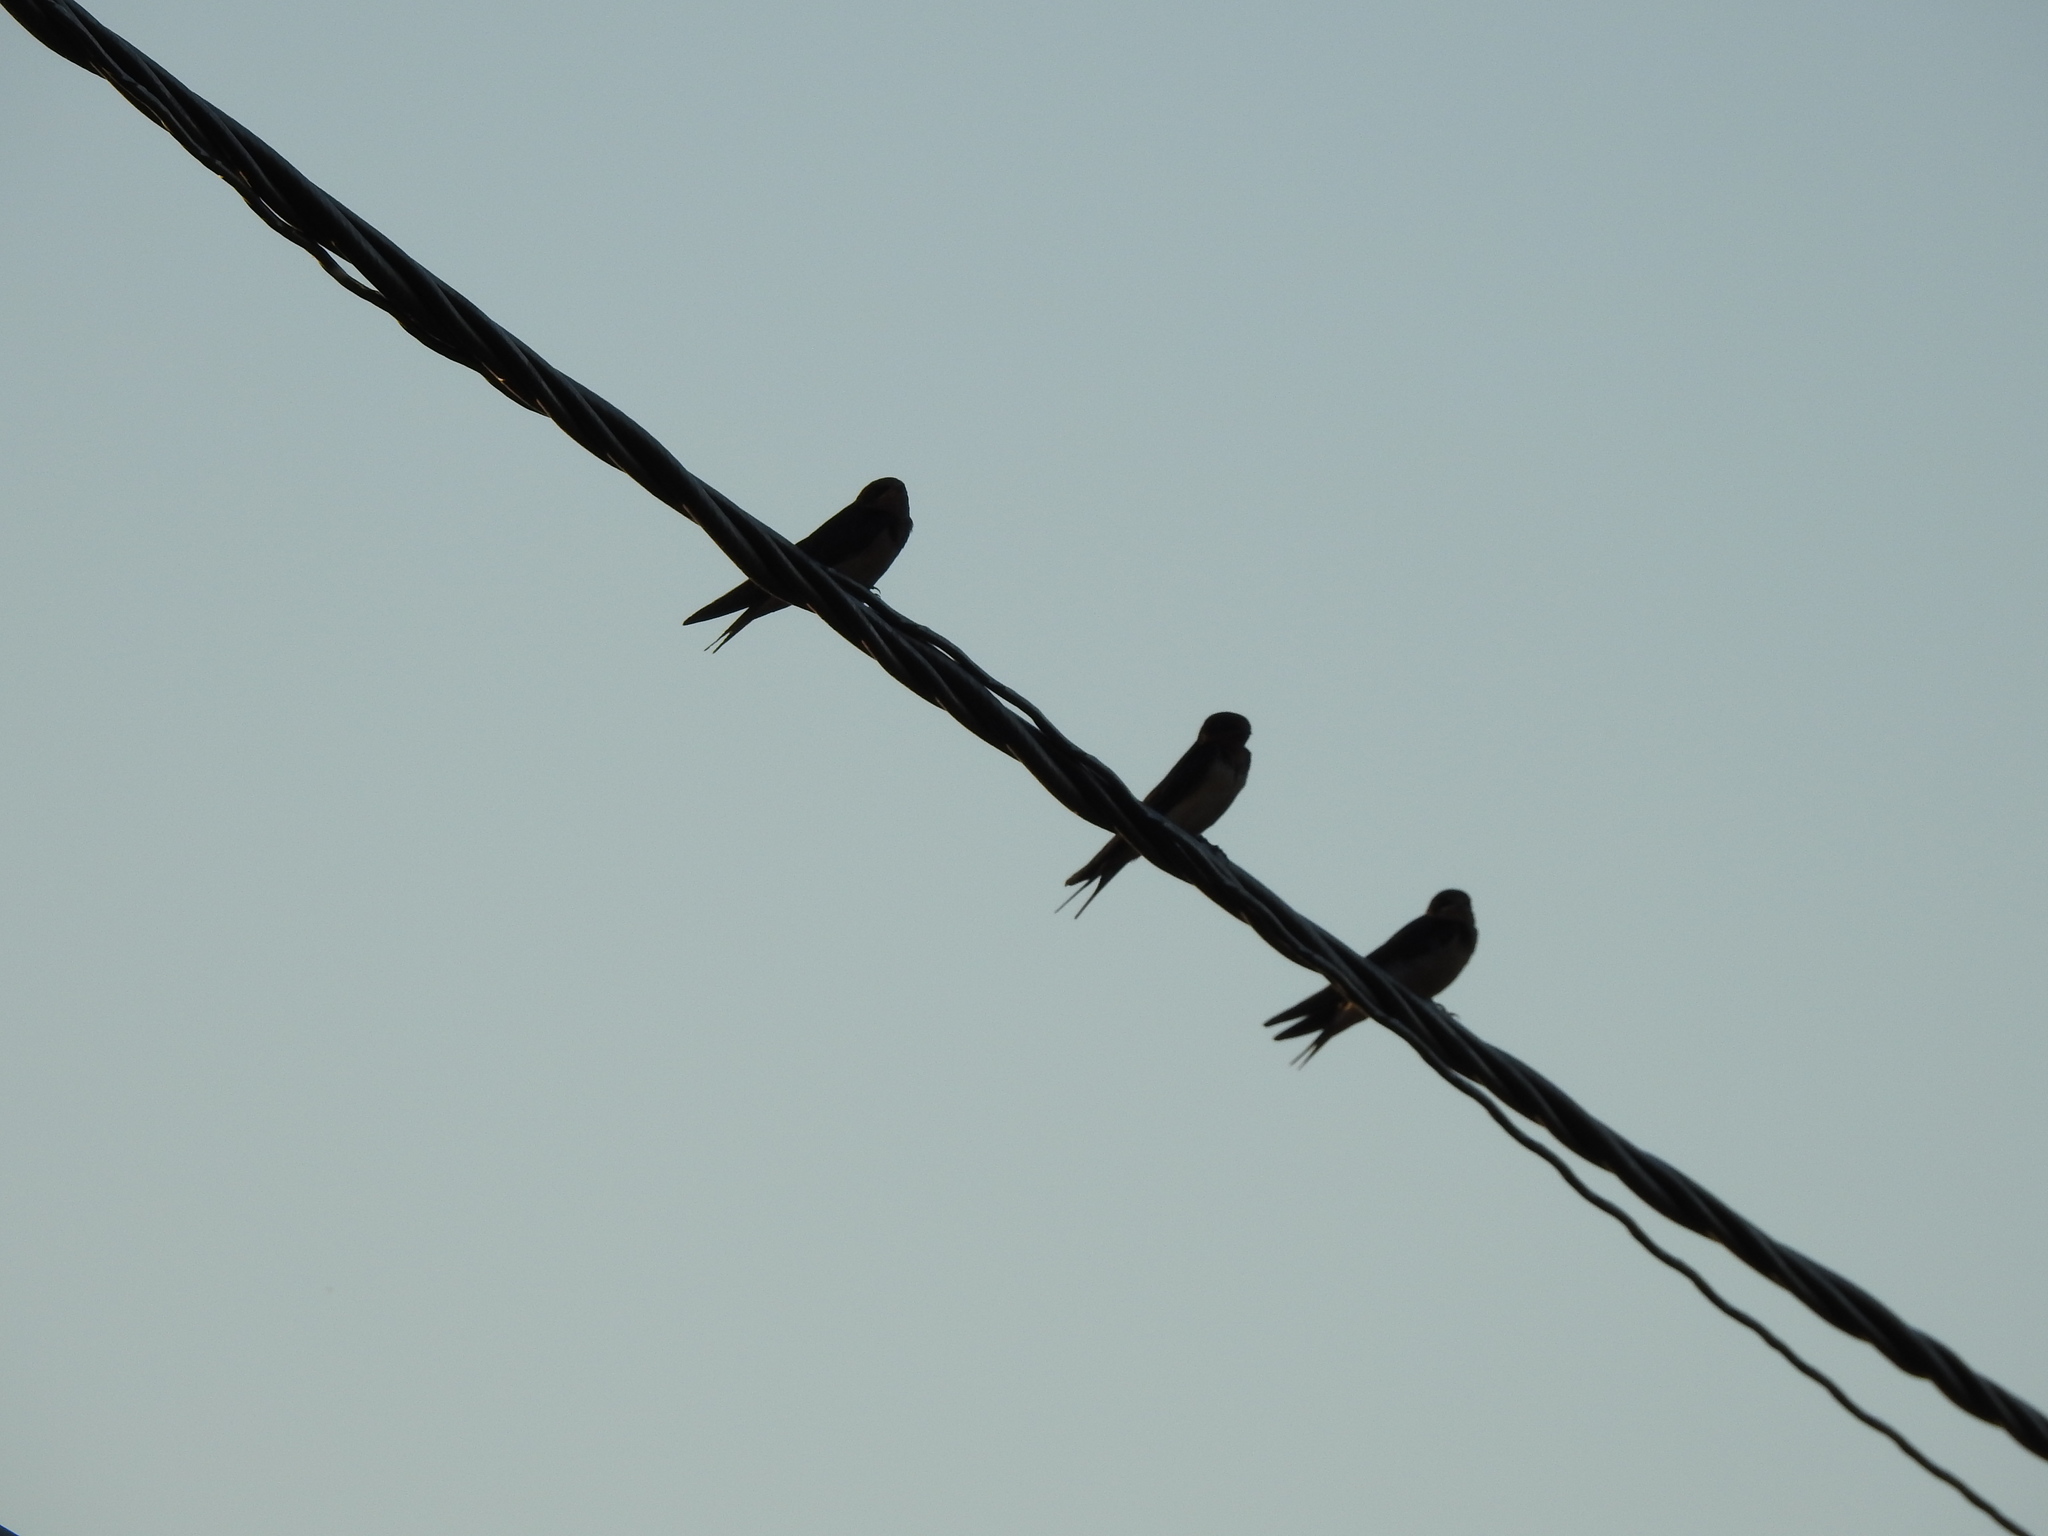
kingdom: Animalia
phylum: Chordata
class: Aves
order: Passeriformes
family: Hirundinidae
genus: Hirundo
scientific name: Hirundo rustica
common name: Barn swallow
